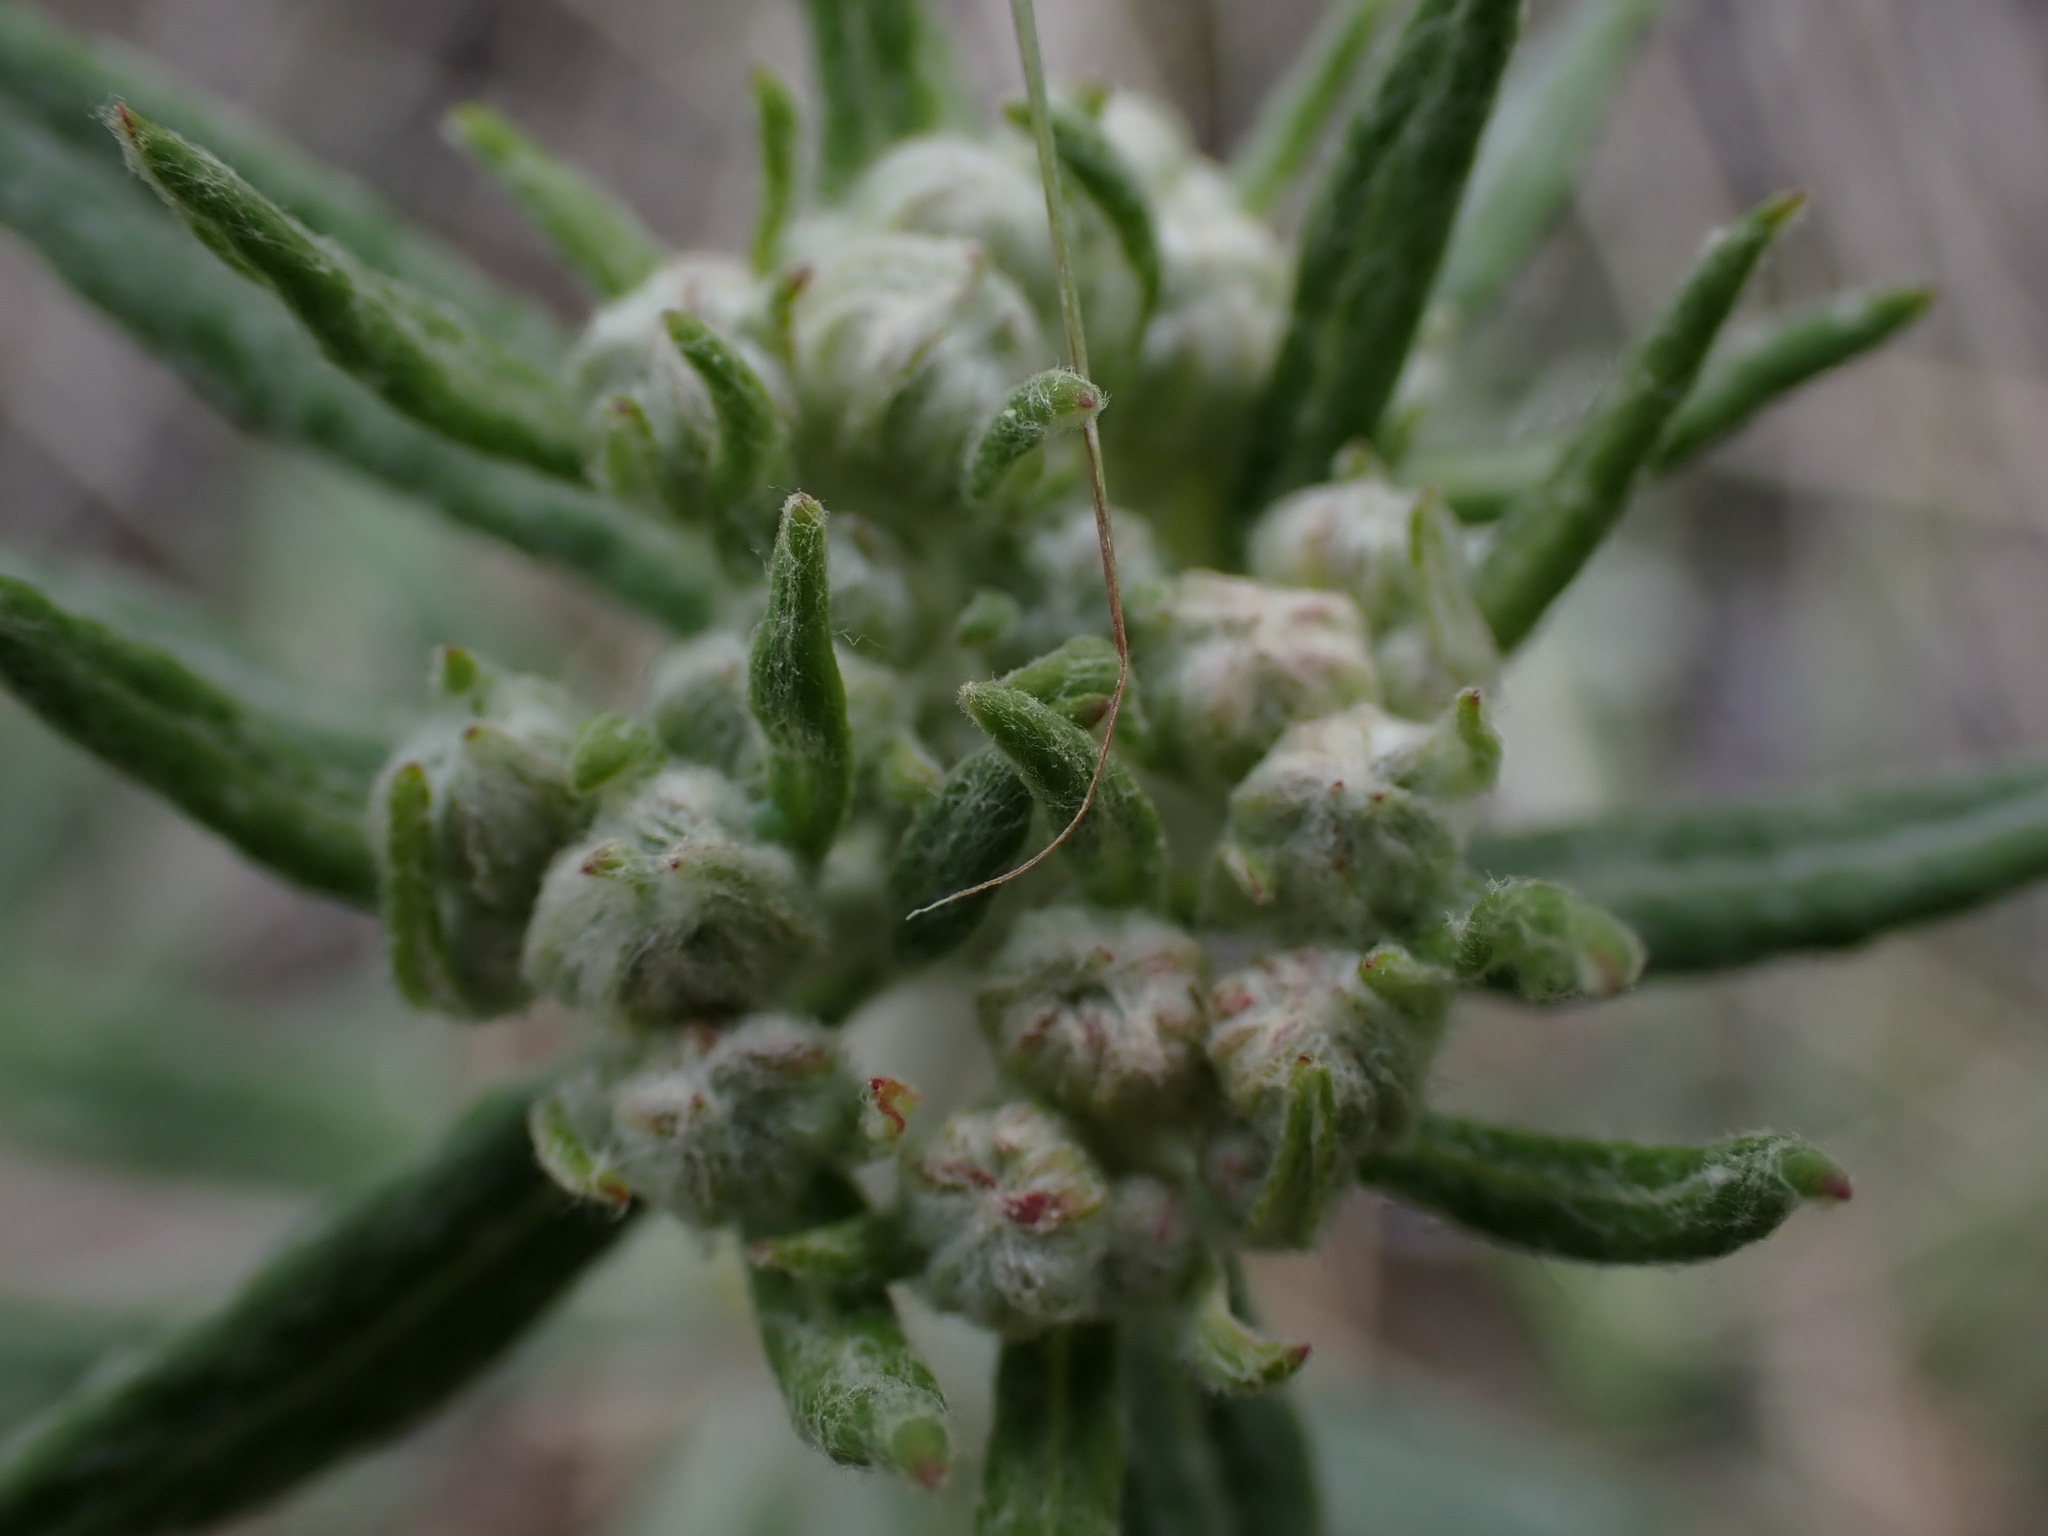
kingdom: Plantae
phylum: Tracheophyta
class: Magnoliopsida
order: Caryophyllales
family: Polygonaceae
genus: Eriogonum
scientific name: Eriogonum heracleoides
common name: Wyeth's buckwheat
